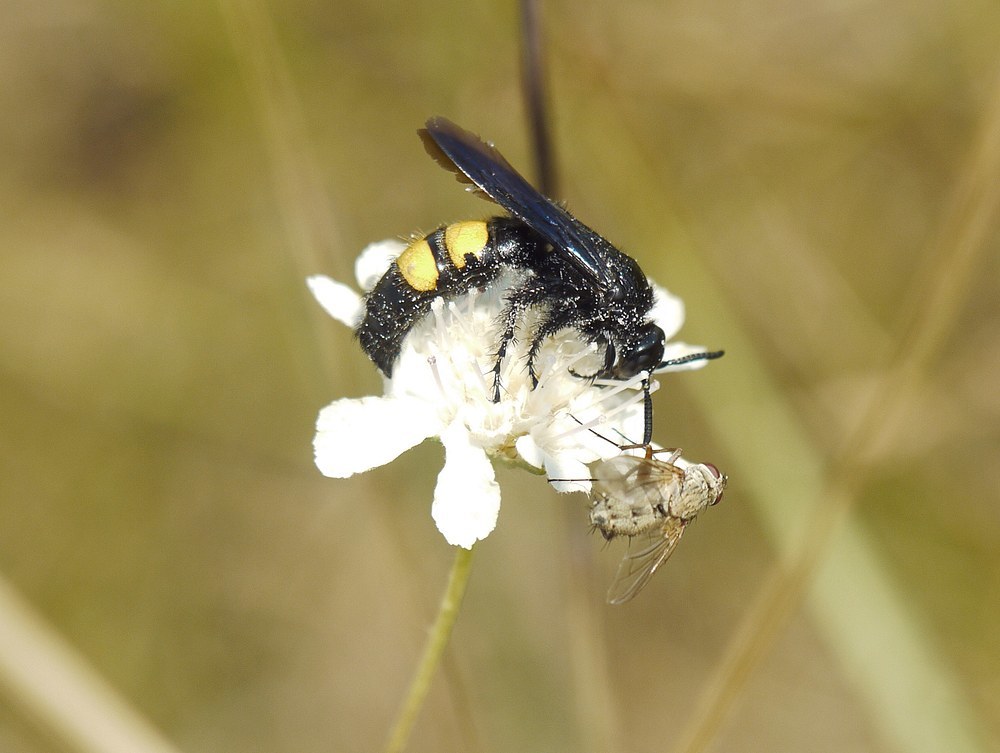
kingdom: Animalia
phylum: Arthropoda
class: Insecta
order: Hymenoptera
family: Scoliidae
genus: Scolia
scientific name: Scolia hirta
